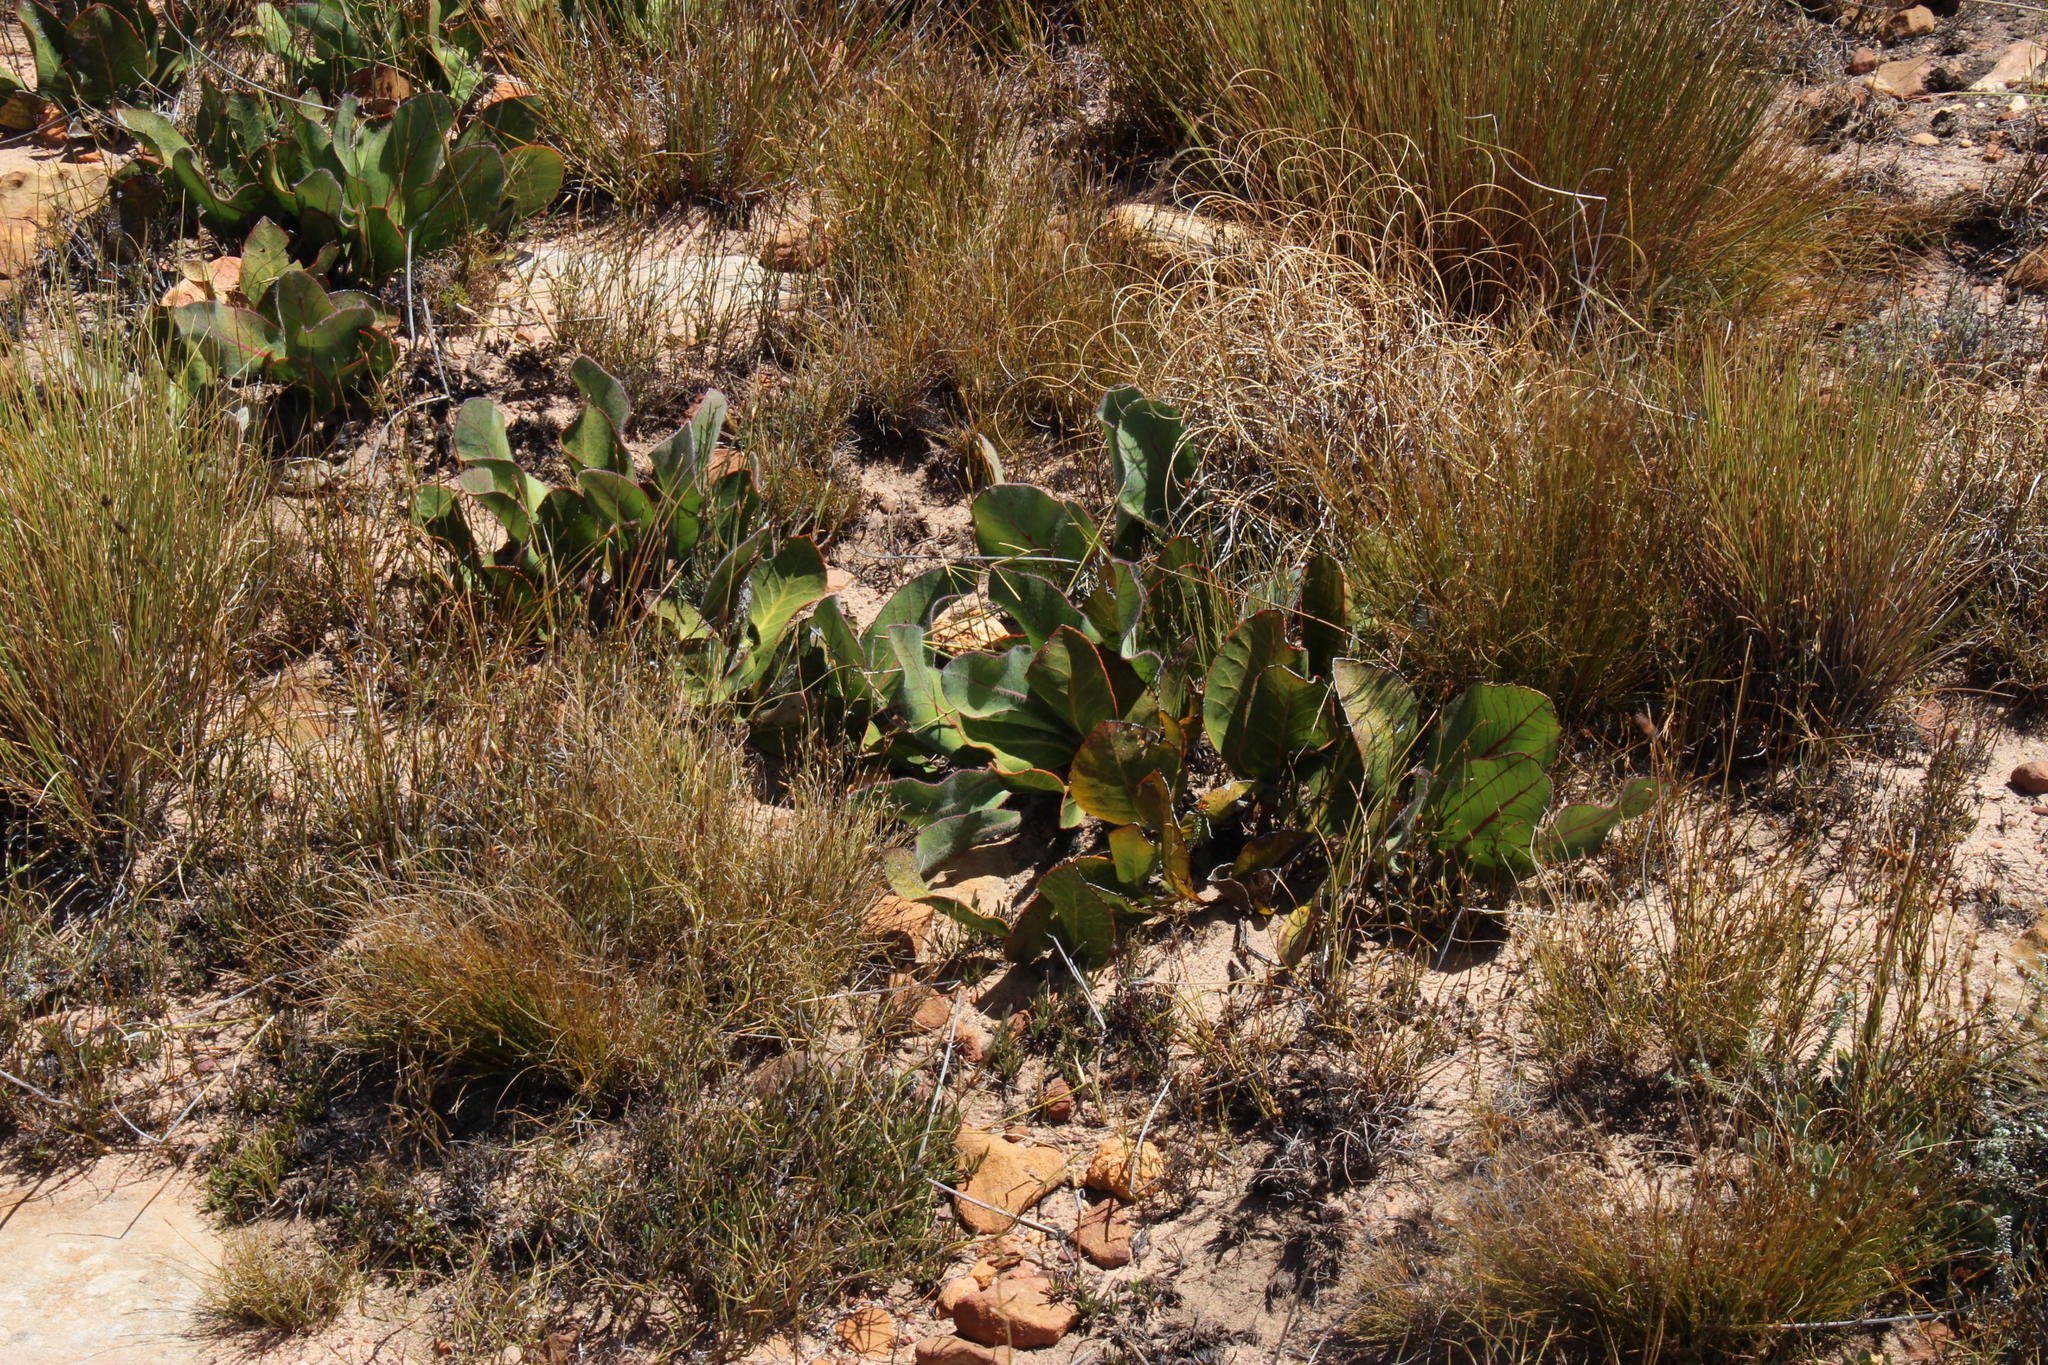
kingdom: Plantae
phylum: Tracheophyta
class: Magnoliopsida
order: Proteales
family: Proteaceae
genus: Protea
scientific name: Protea scolopendriifolia
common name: Harts-tongue-fern sugarbush
